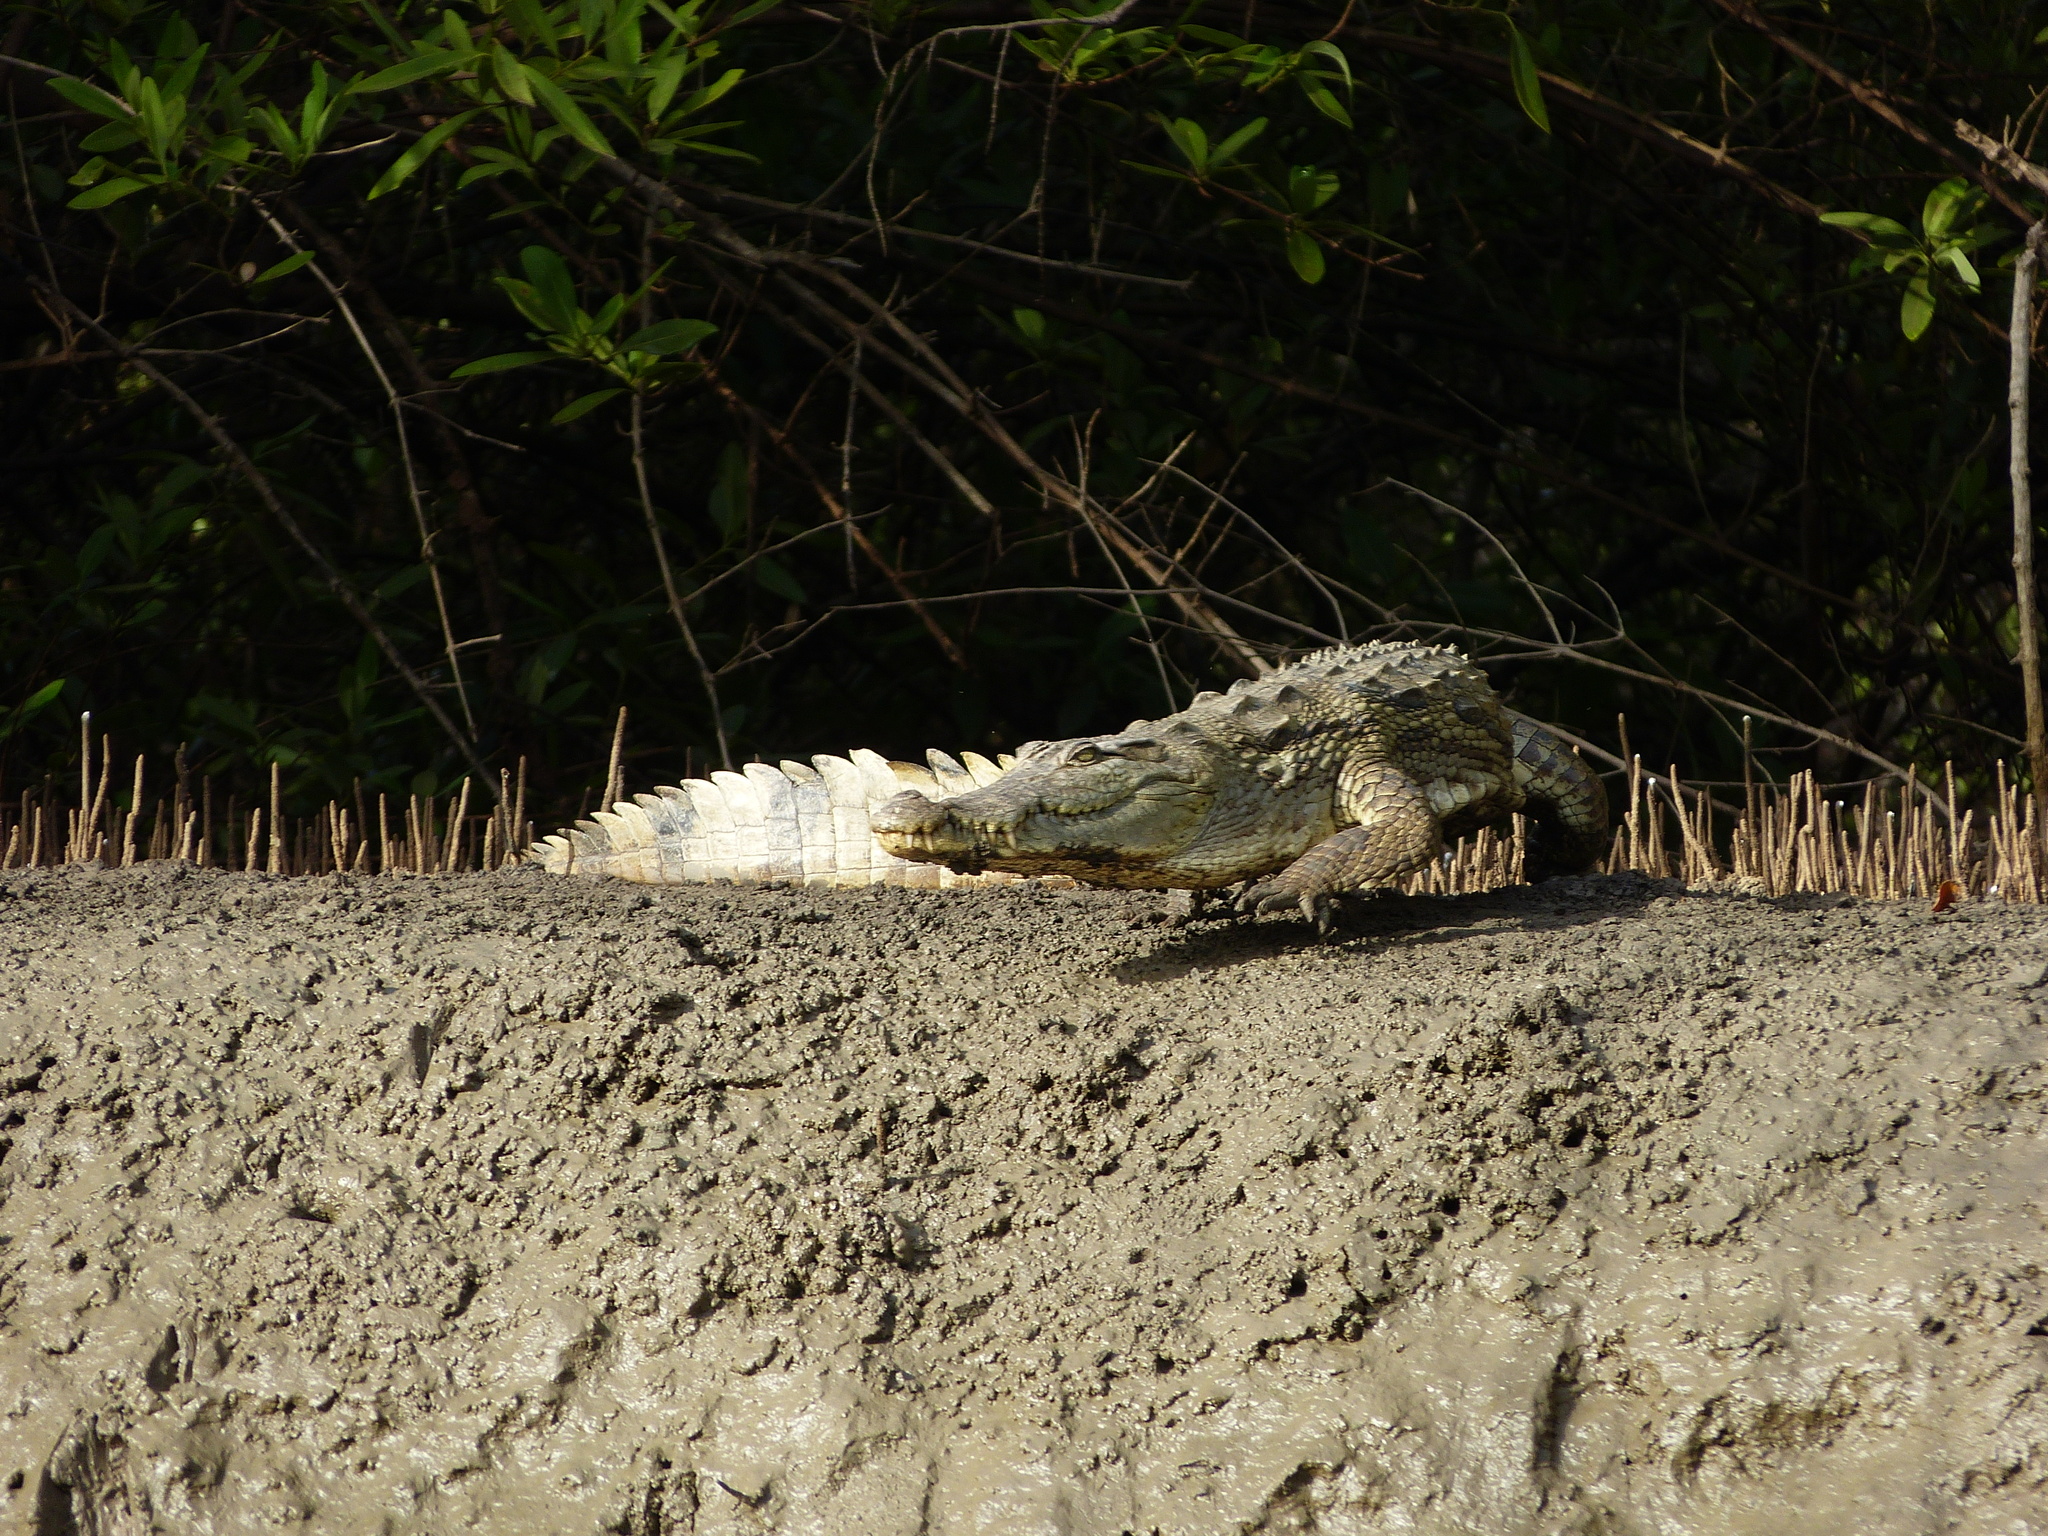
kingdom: Animalia
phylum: Chordata
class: Crocodylia
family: Crocodylidae
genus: Crocodylus
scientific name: Crocodylus suchus
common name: West african crocodile
